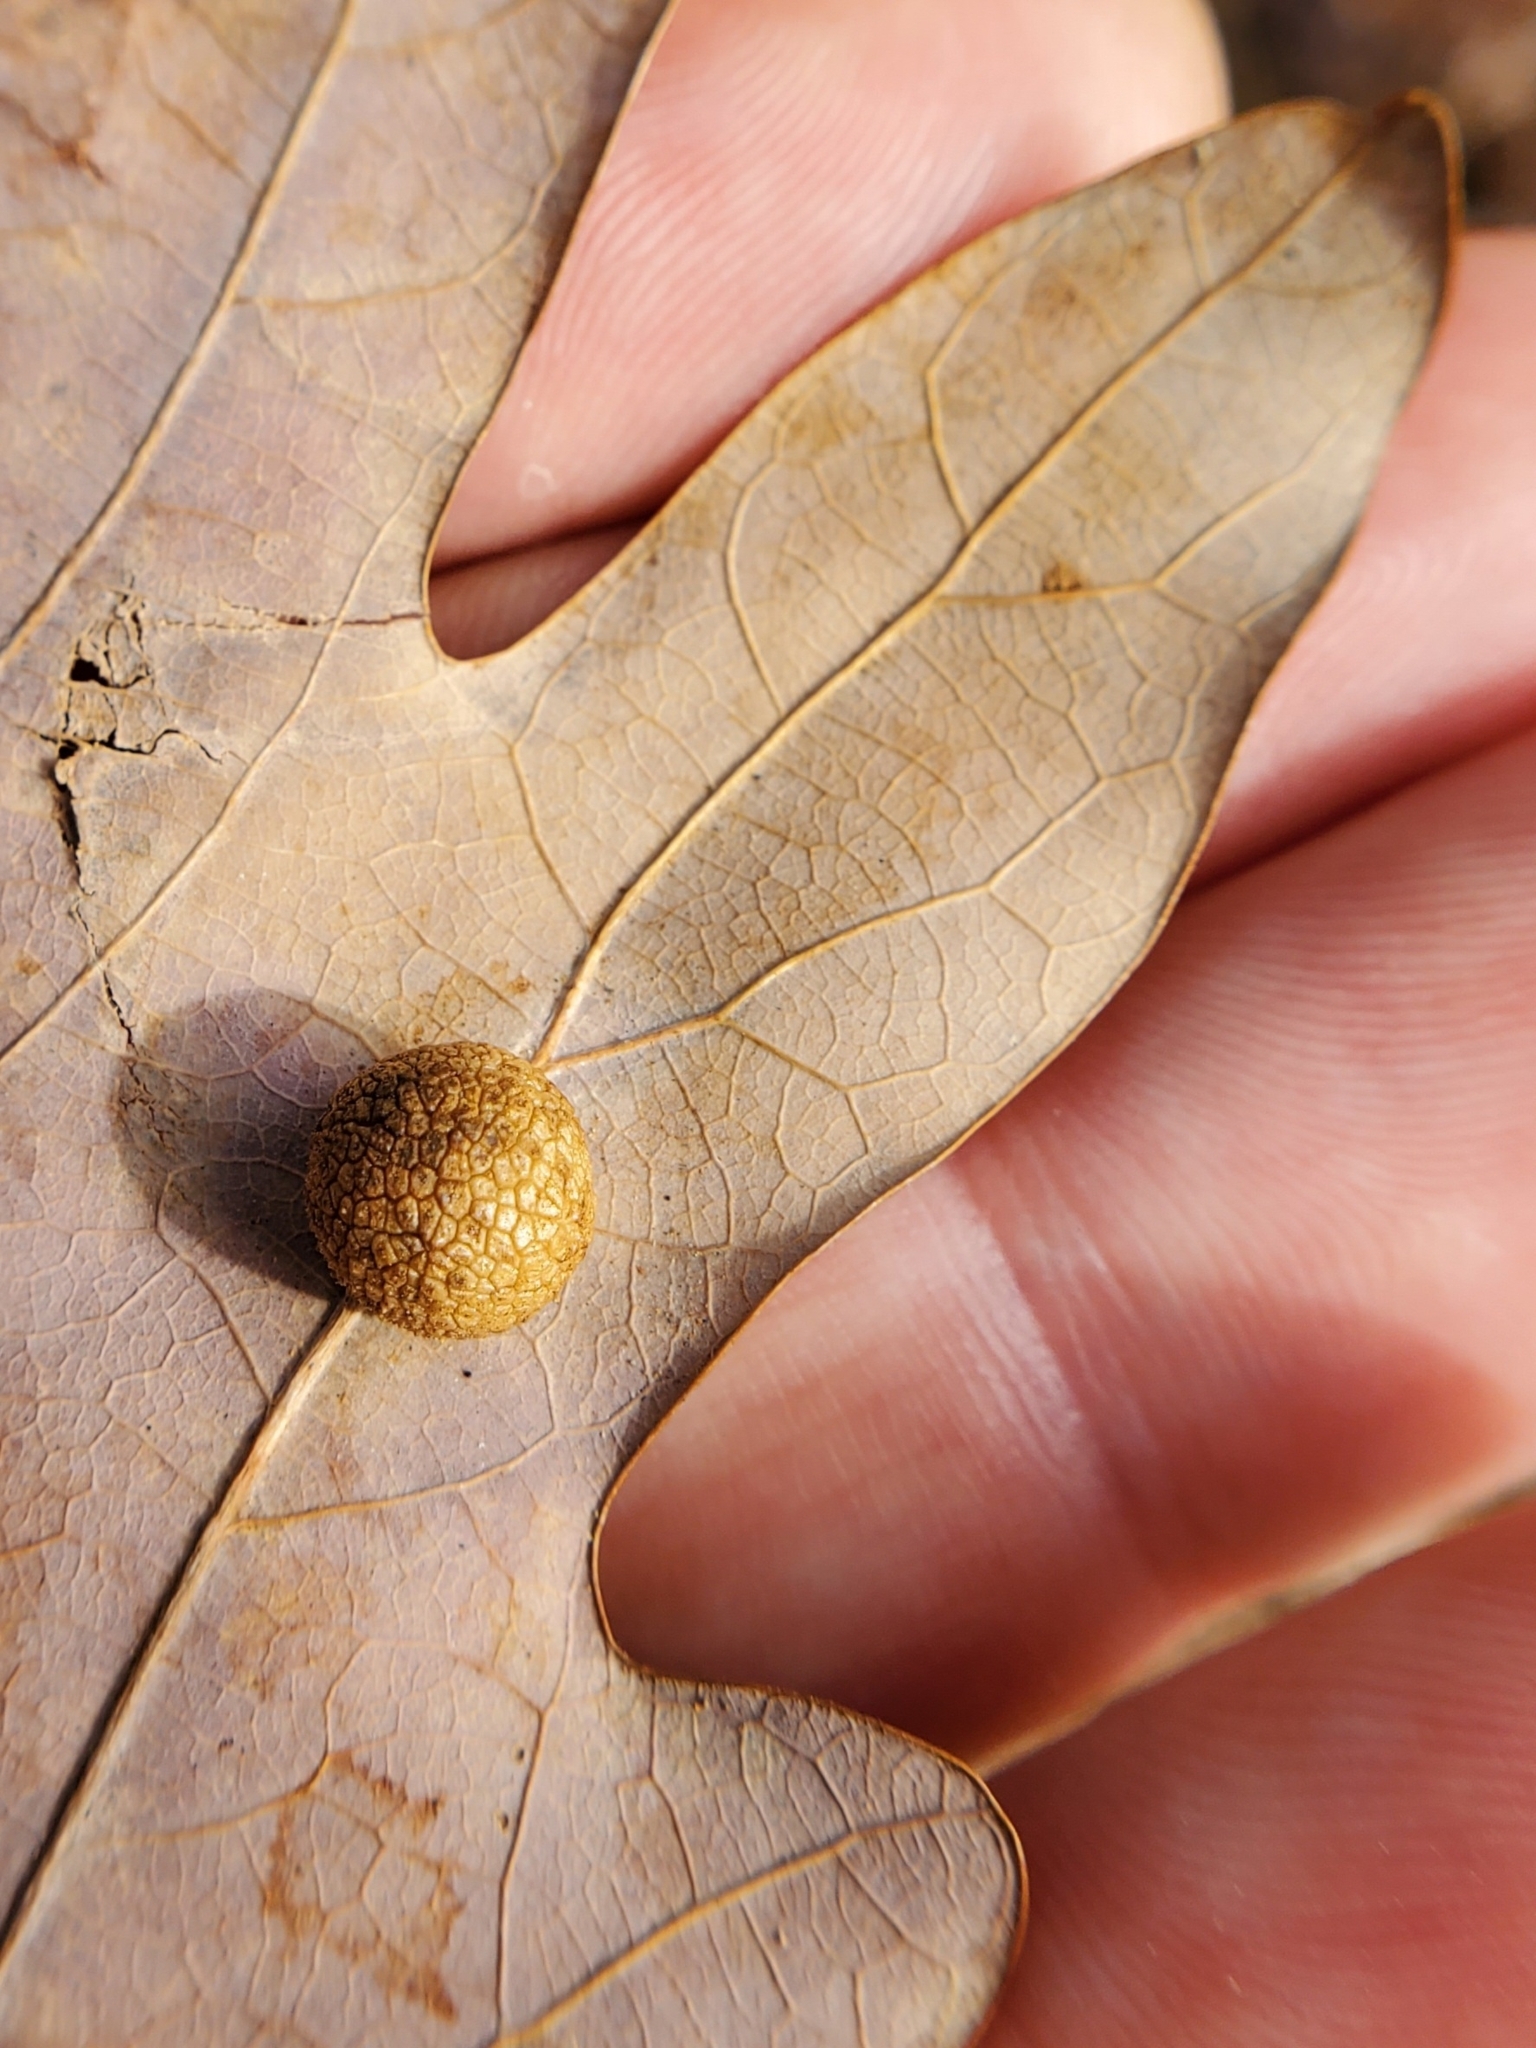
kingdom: Animalia
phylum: Arthropoda
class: Insecta
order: Hymenoptera
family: Cynipidae
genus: Acraspis
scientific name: Acraspis
